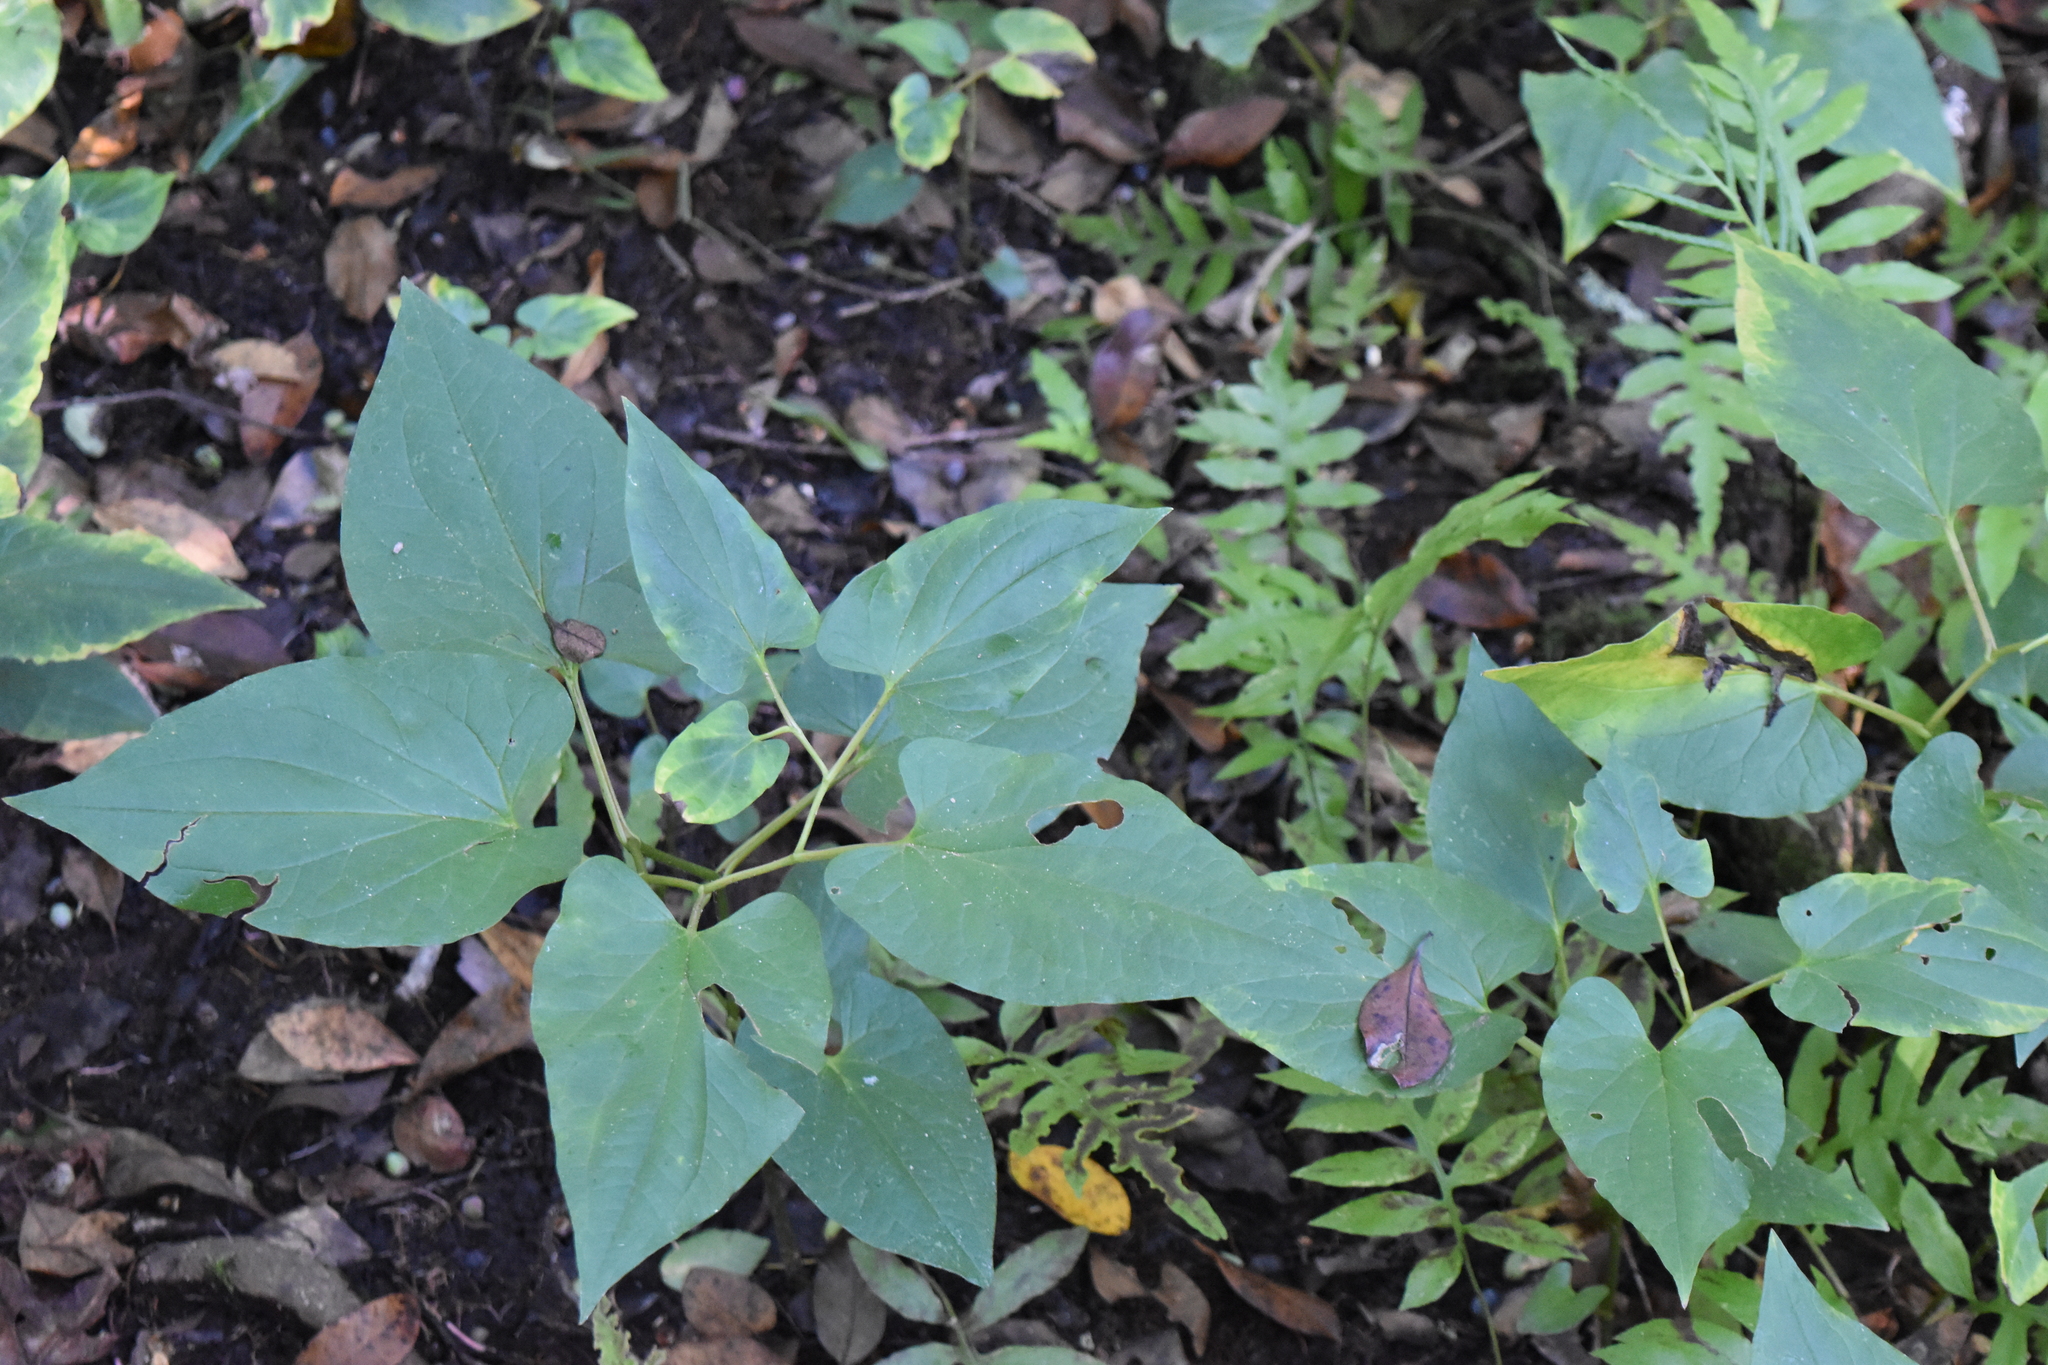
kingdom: Plantae
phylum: Tracheophyta
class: Magnoliopsida
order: Piperales
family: Saururaceae
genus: Saururus
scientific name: Saururus cernuus
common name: Lizard's-tail
